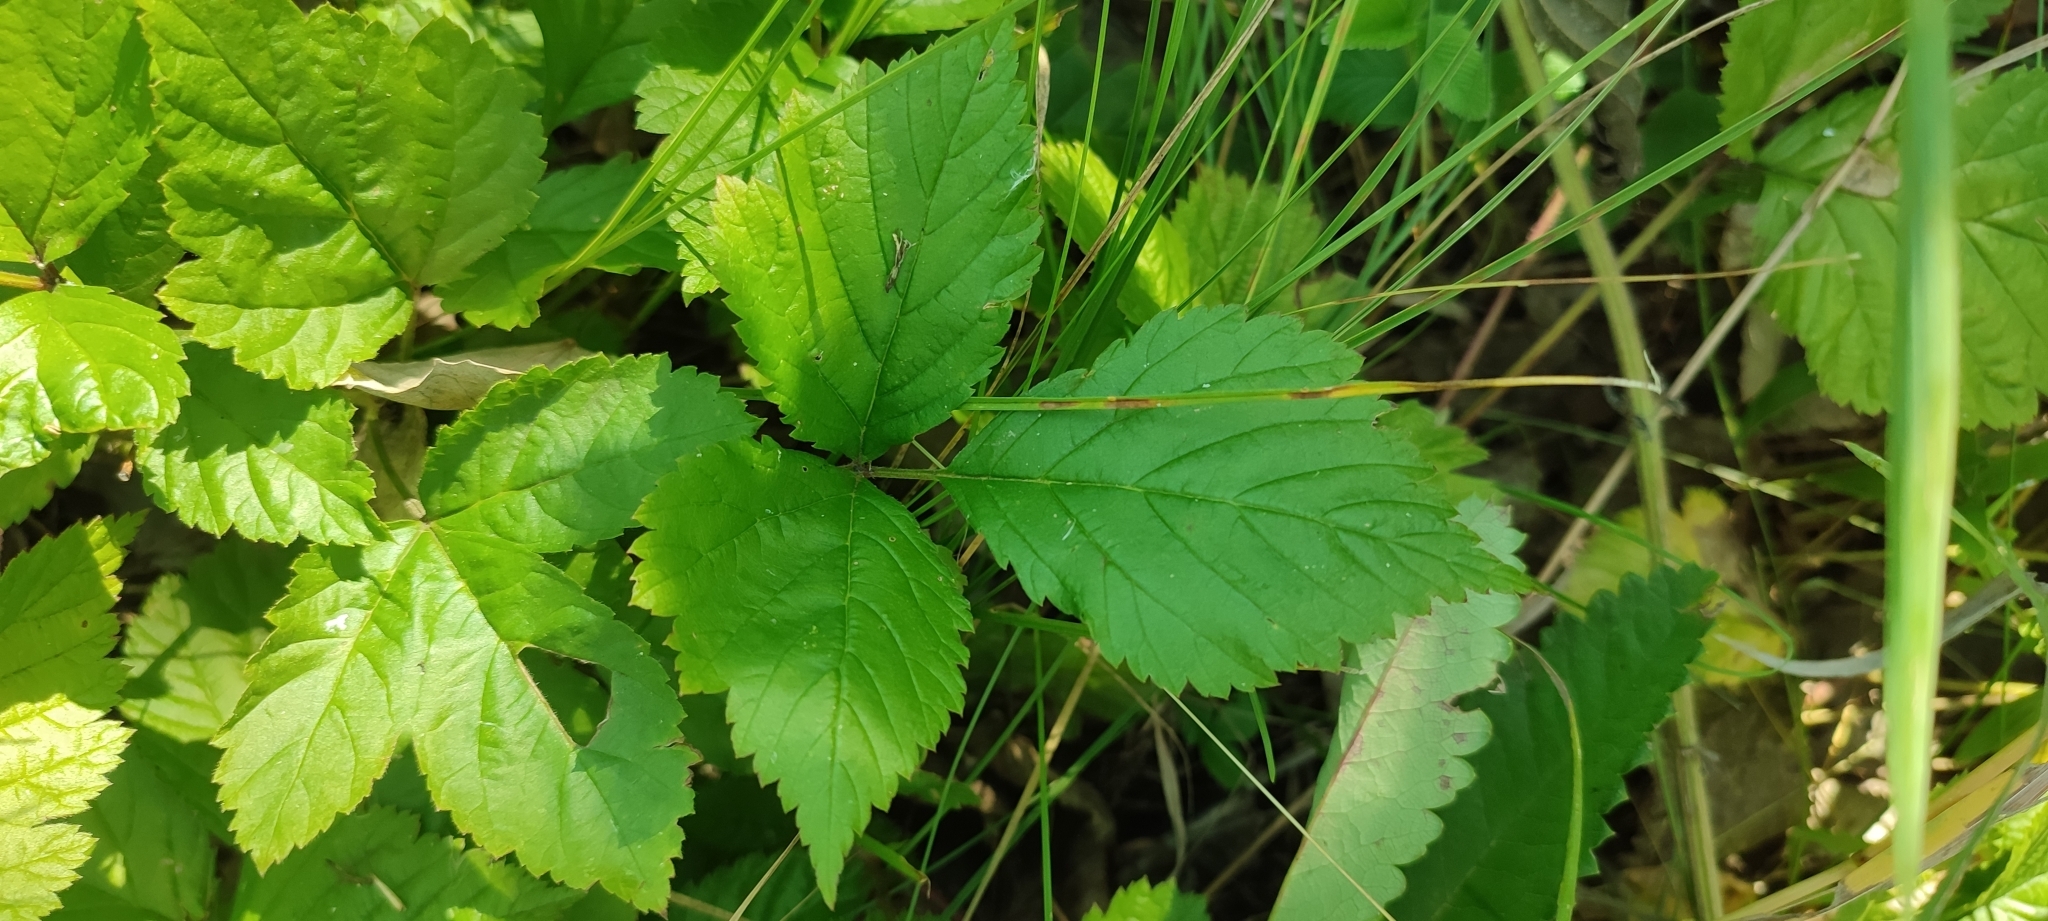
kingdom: Plantae
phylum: Tracheophyta
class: Magnoliopsida
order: Rosales
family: Rosaceae
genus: Rubus
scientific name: Rubus saxatilis
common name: Stone bramble
